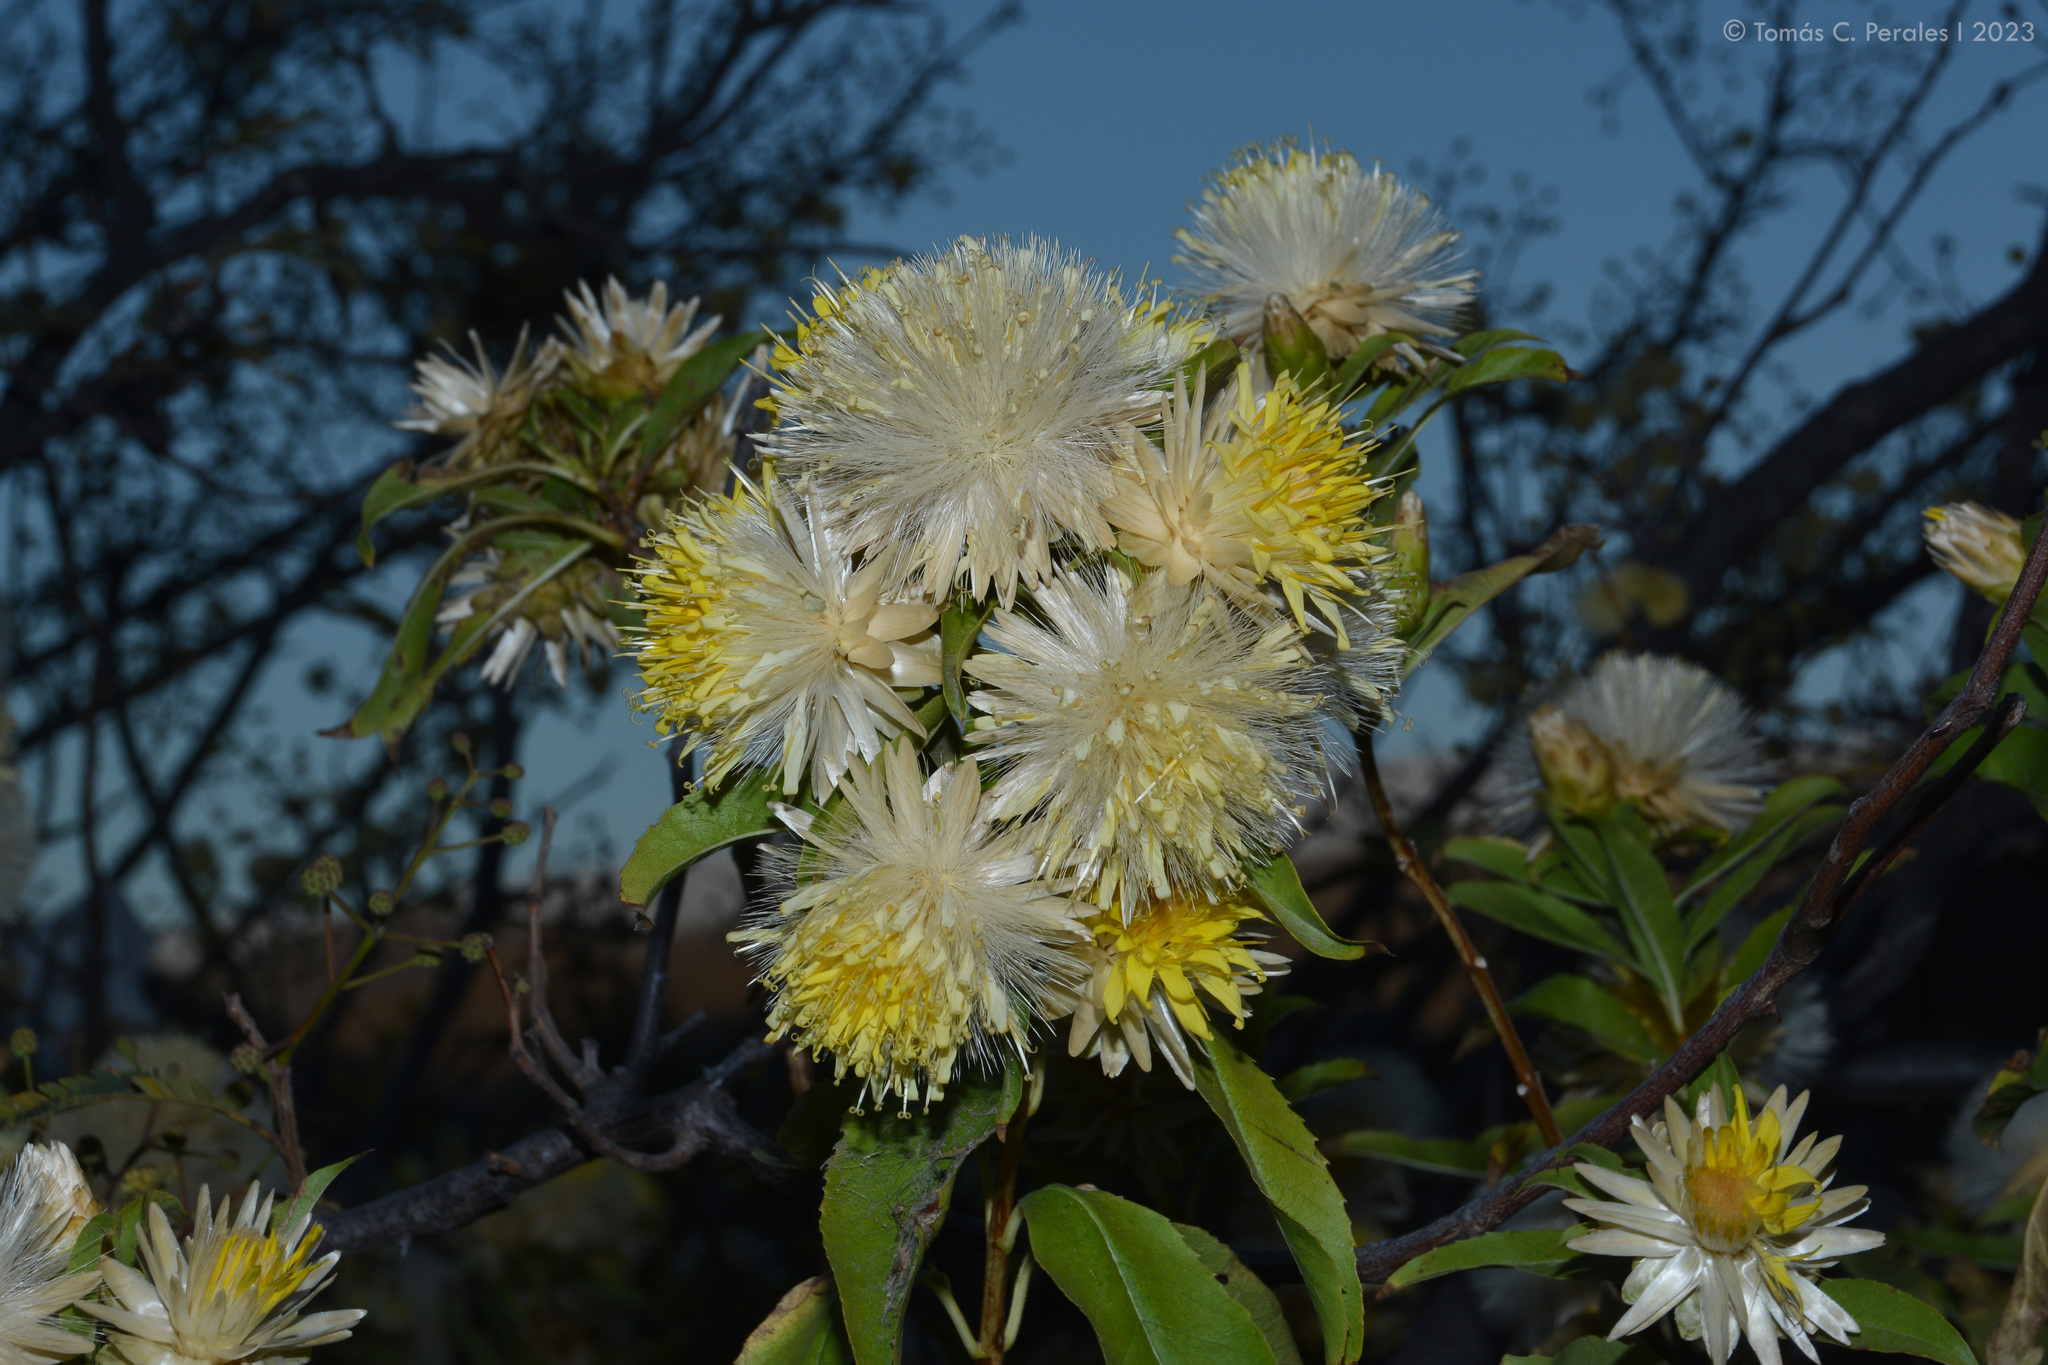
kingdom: Plantae
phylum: Tracheophyta
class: Magnoliopsida
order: Asterales
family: Asteraceae
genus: Hyaloseris
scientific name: Hyaloseris salicifolia
